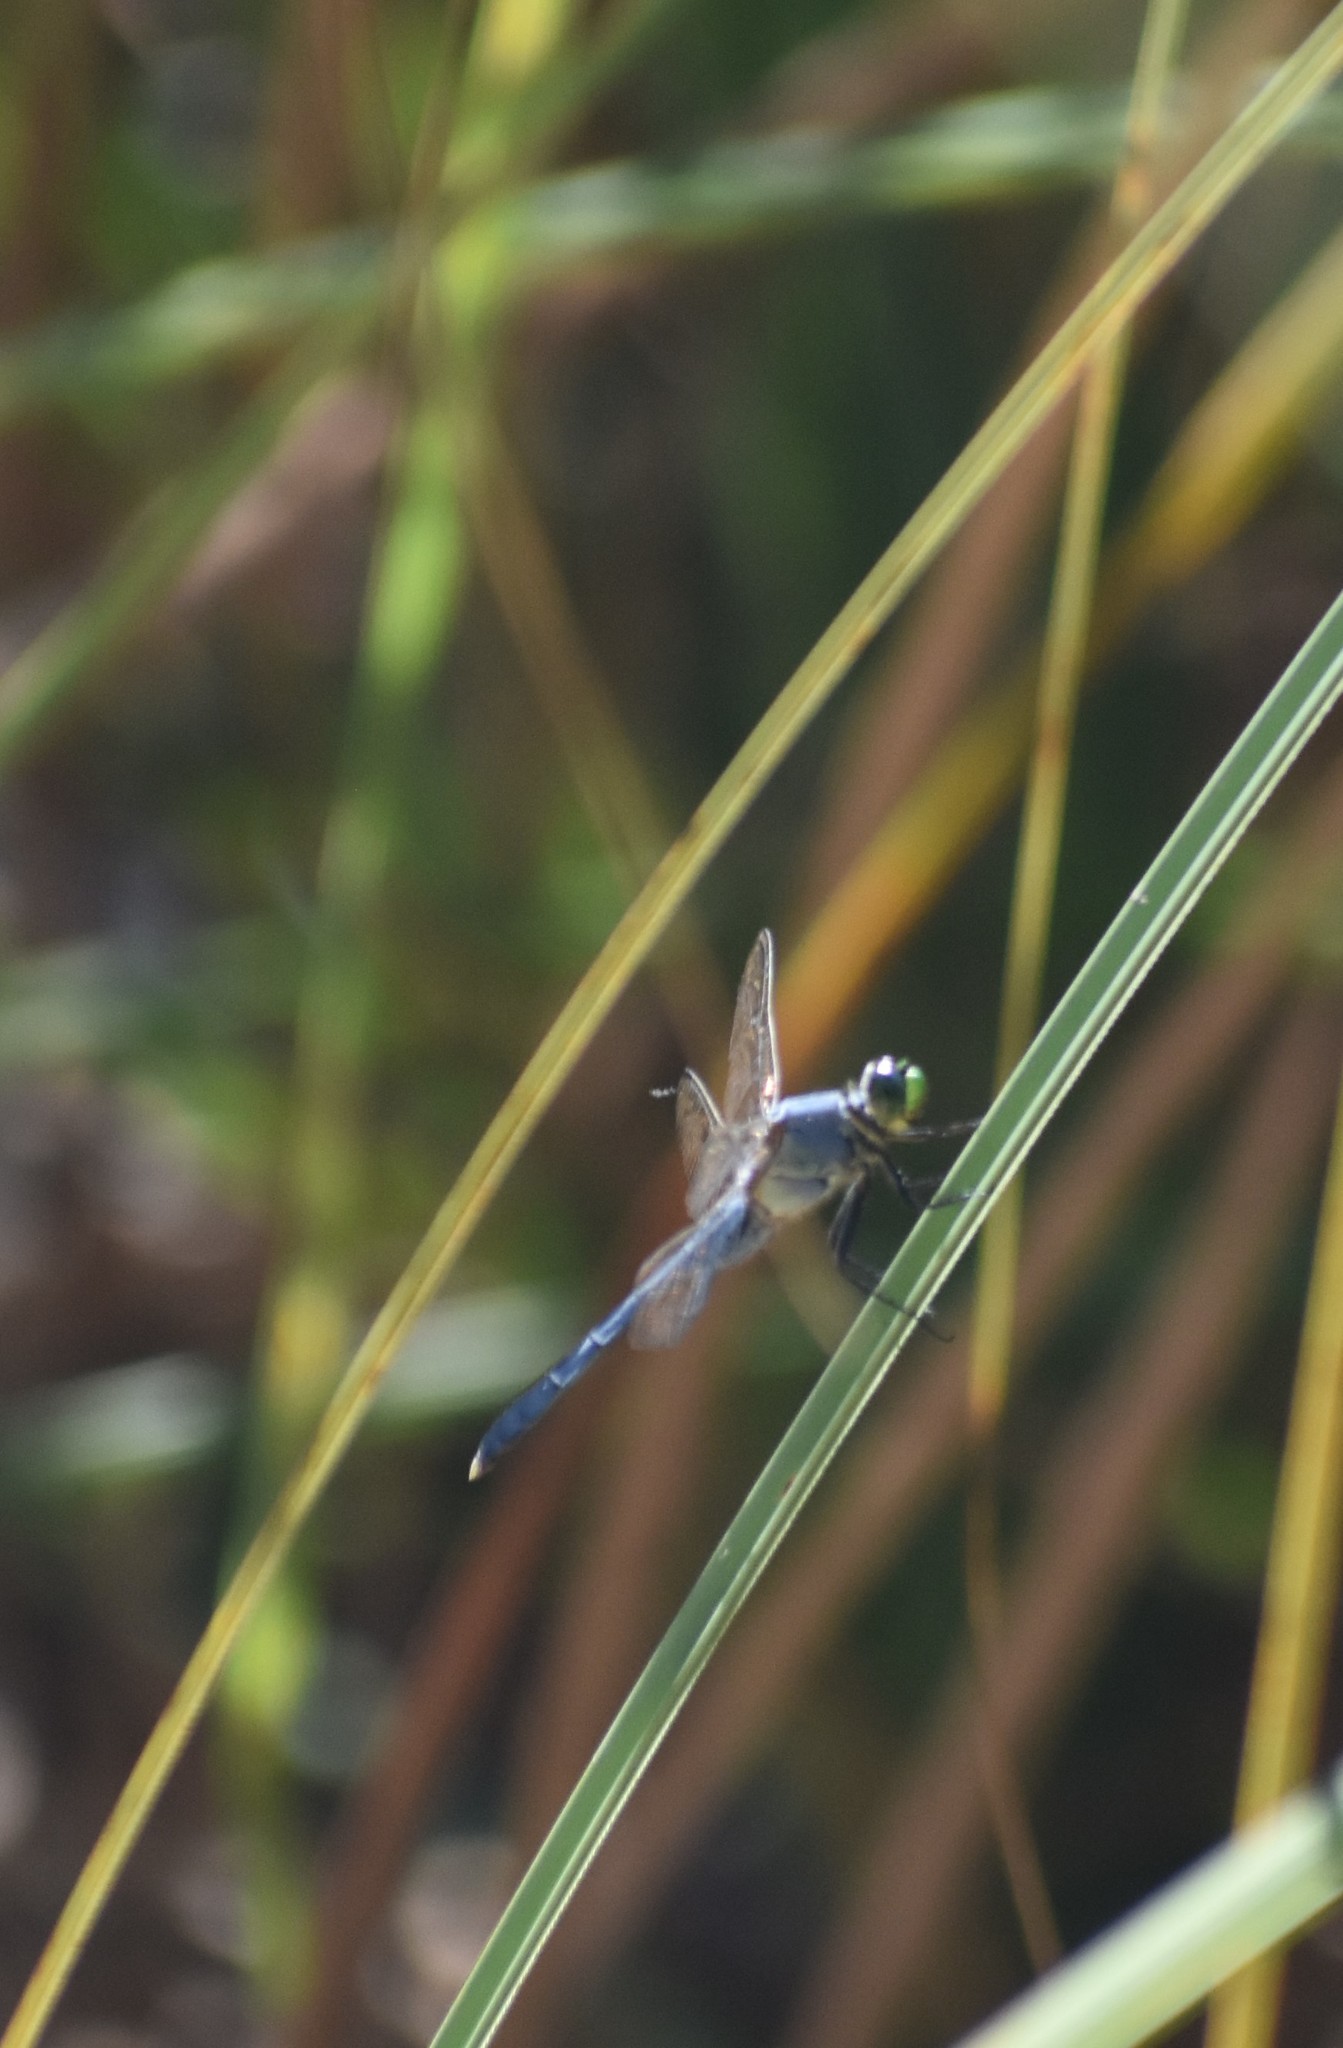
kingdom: Animalia
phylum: Arthropoda
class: Insecta
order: Odonata
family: Libellulidae
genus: Erythemis
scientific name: Erythemis simplicicollis
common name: Eastern pondhawk
